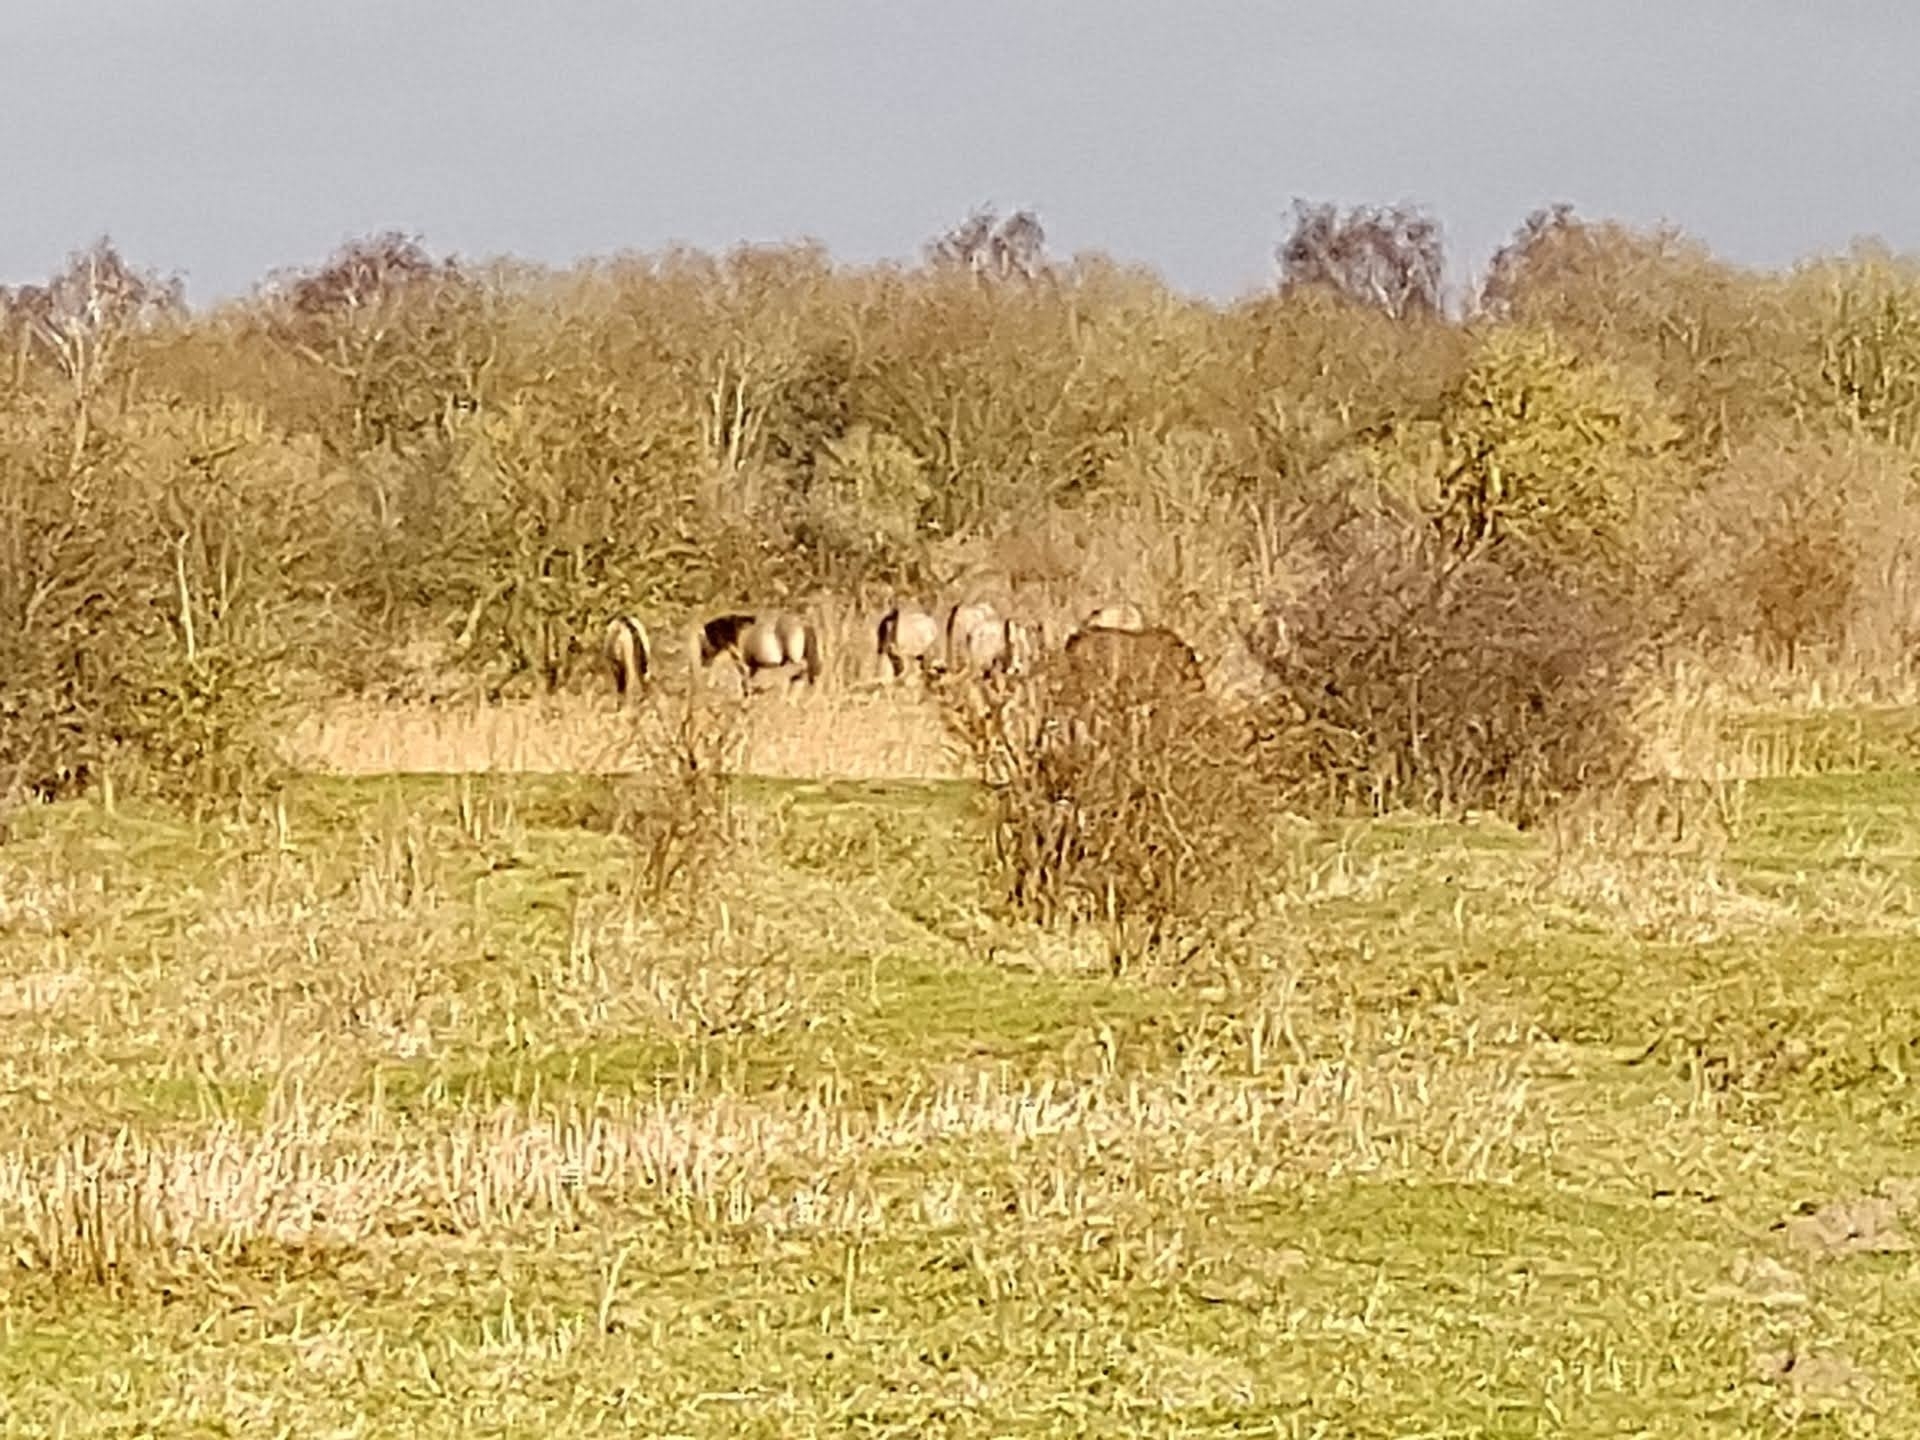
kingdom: Animalia
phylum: Chordata
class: Mammalia
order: Perissodactyla
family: Equidae
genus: Equus
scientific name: Equus caballus
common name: Horse
